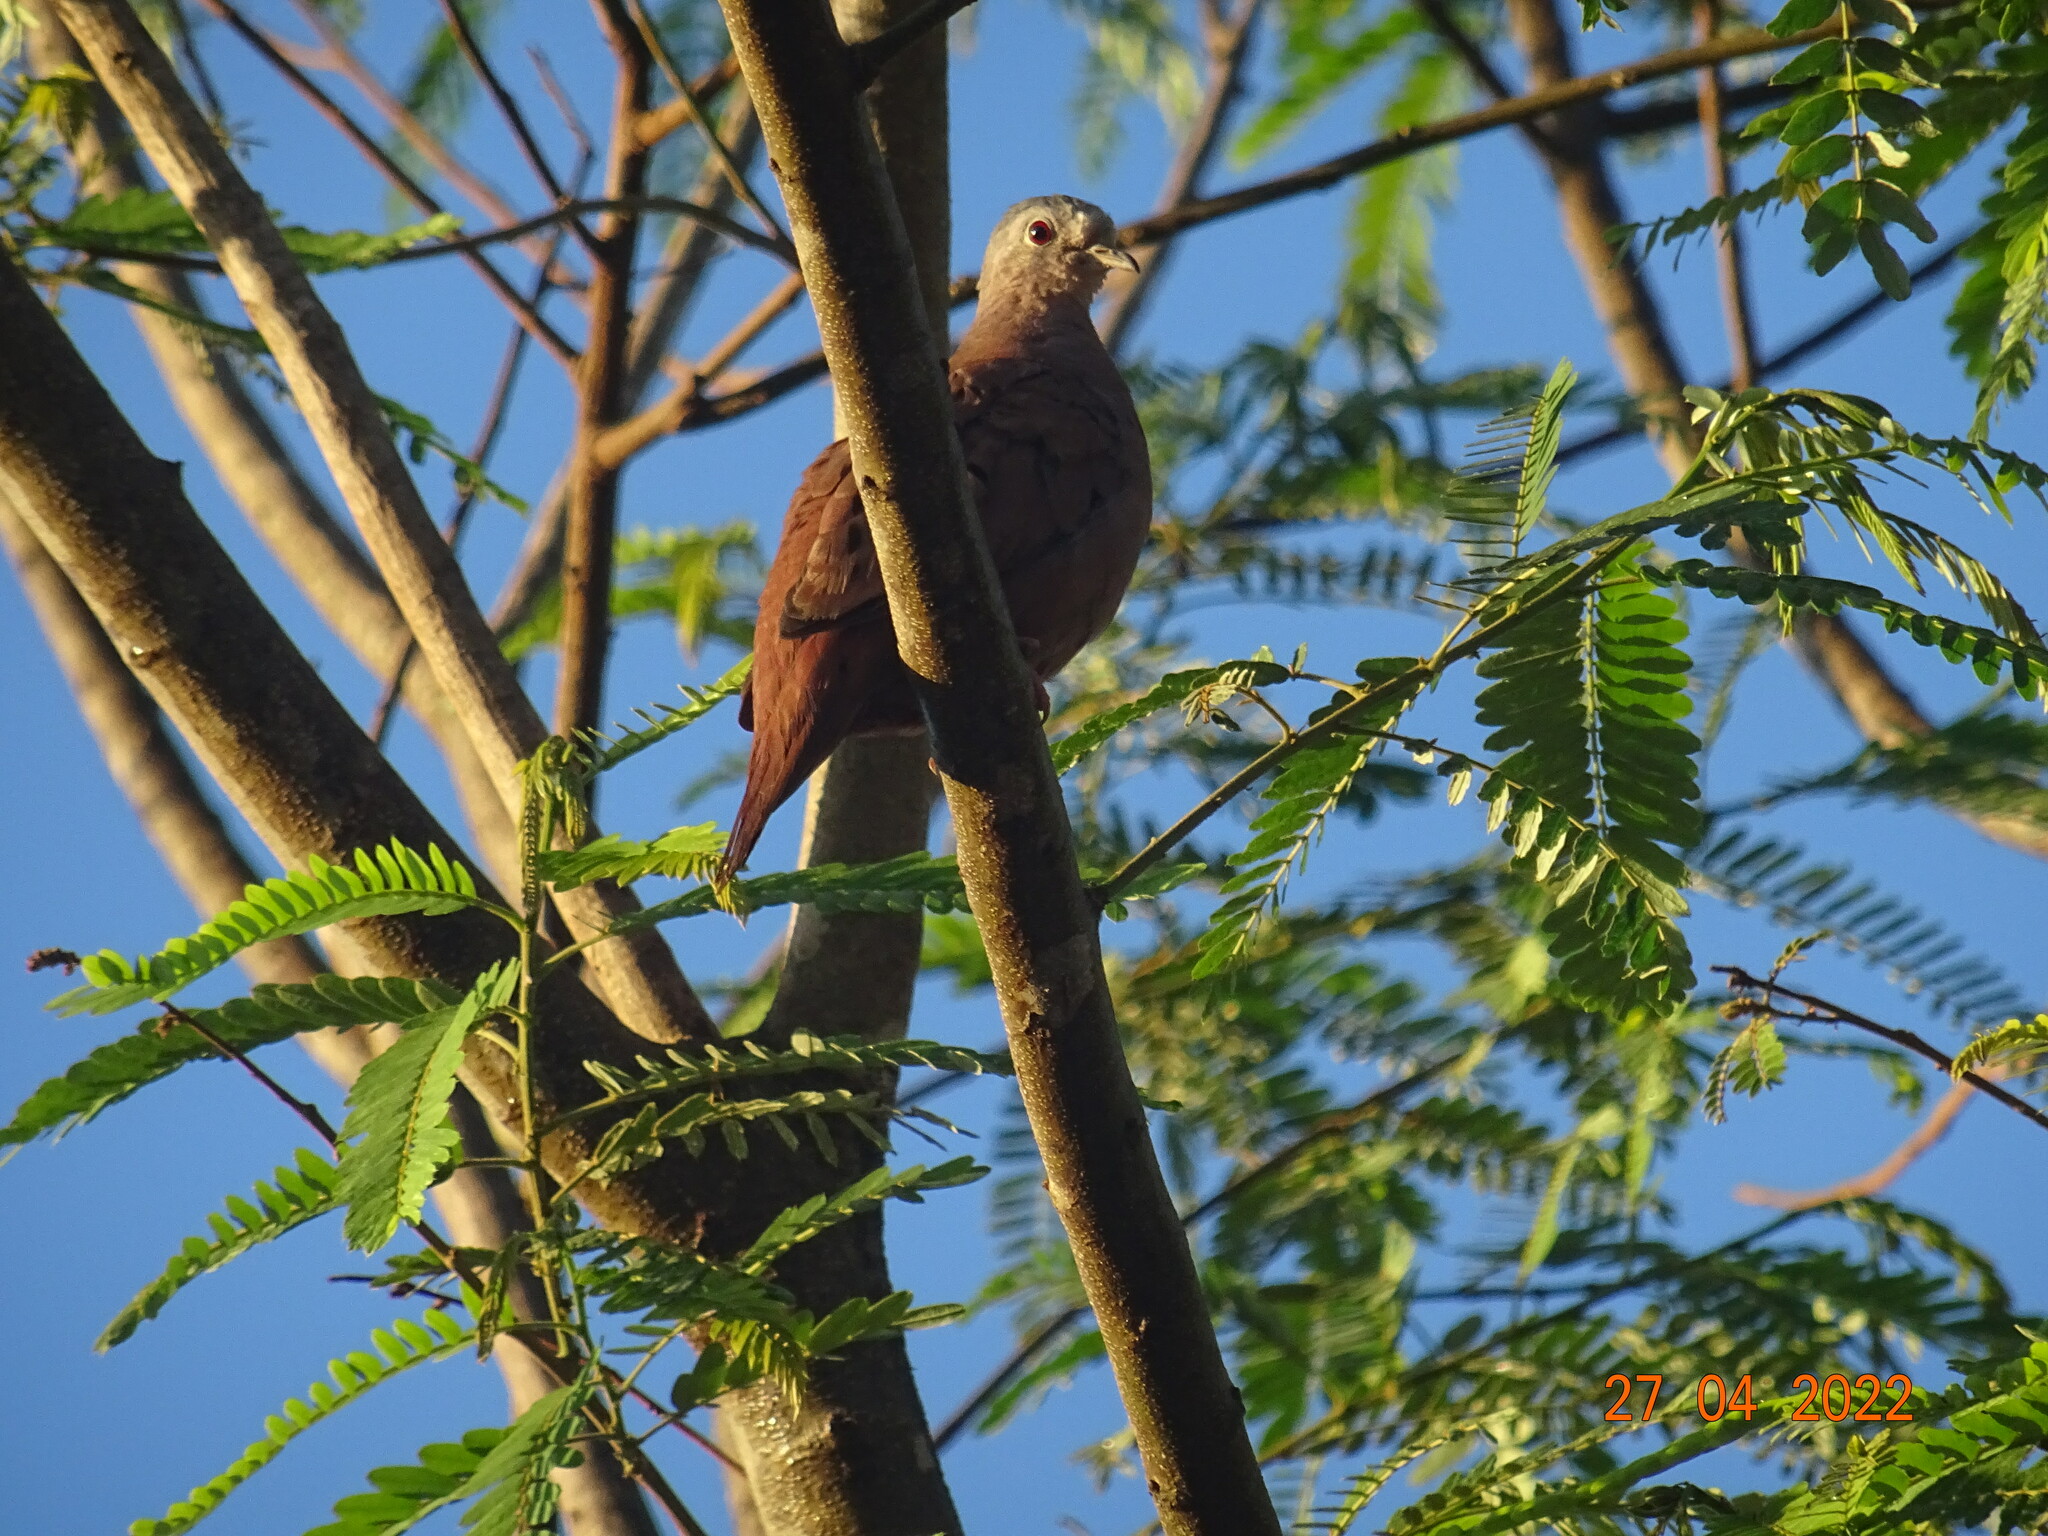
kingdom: Animalia
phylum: Chordata
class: Aves
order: Columbiformes
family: Columbidae
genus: Columbina
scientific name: Columbina talpacoti
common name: Ruddy ground dove
